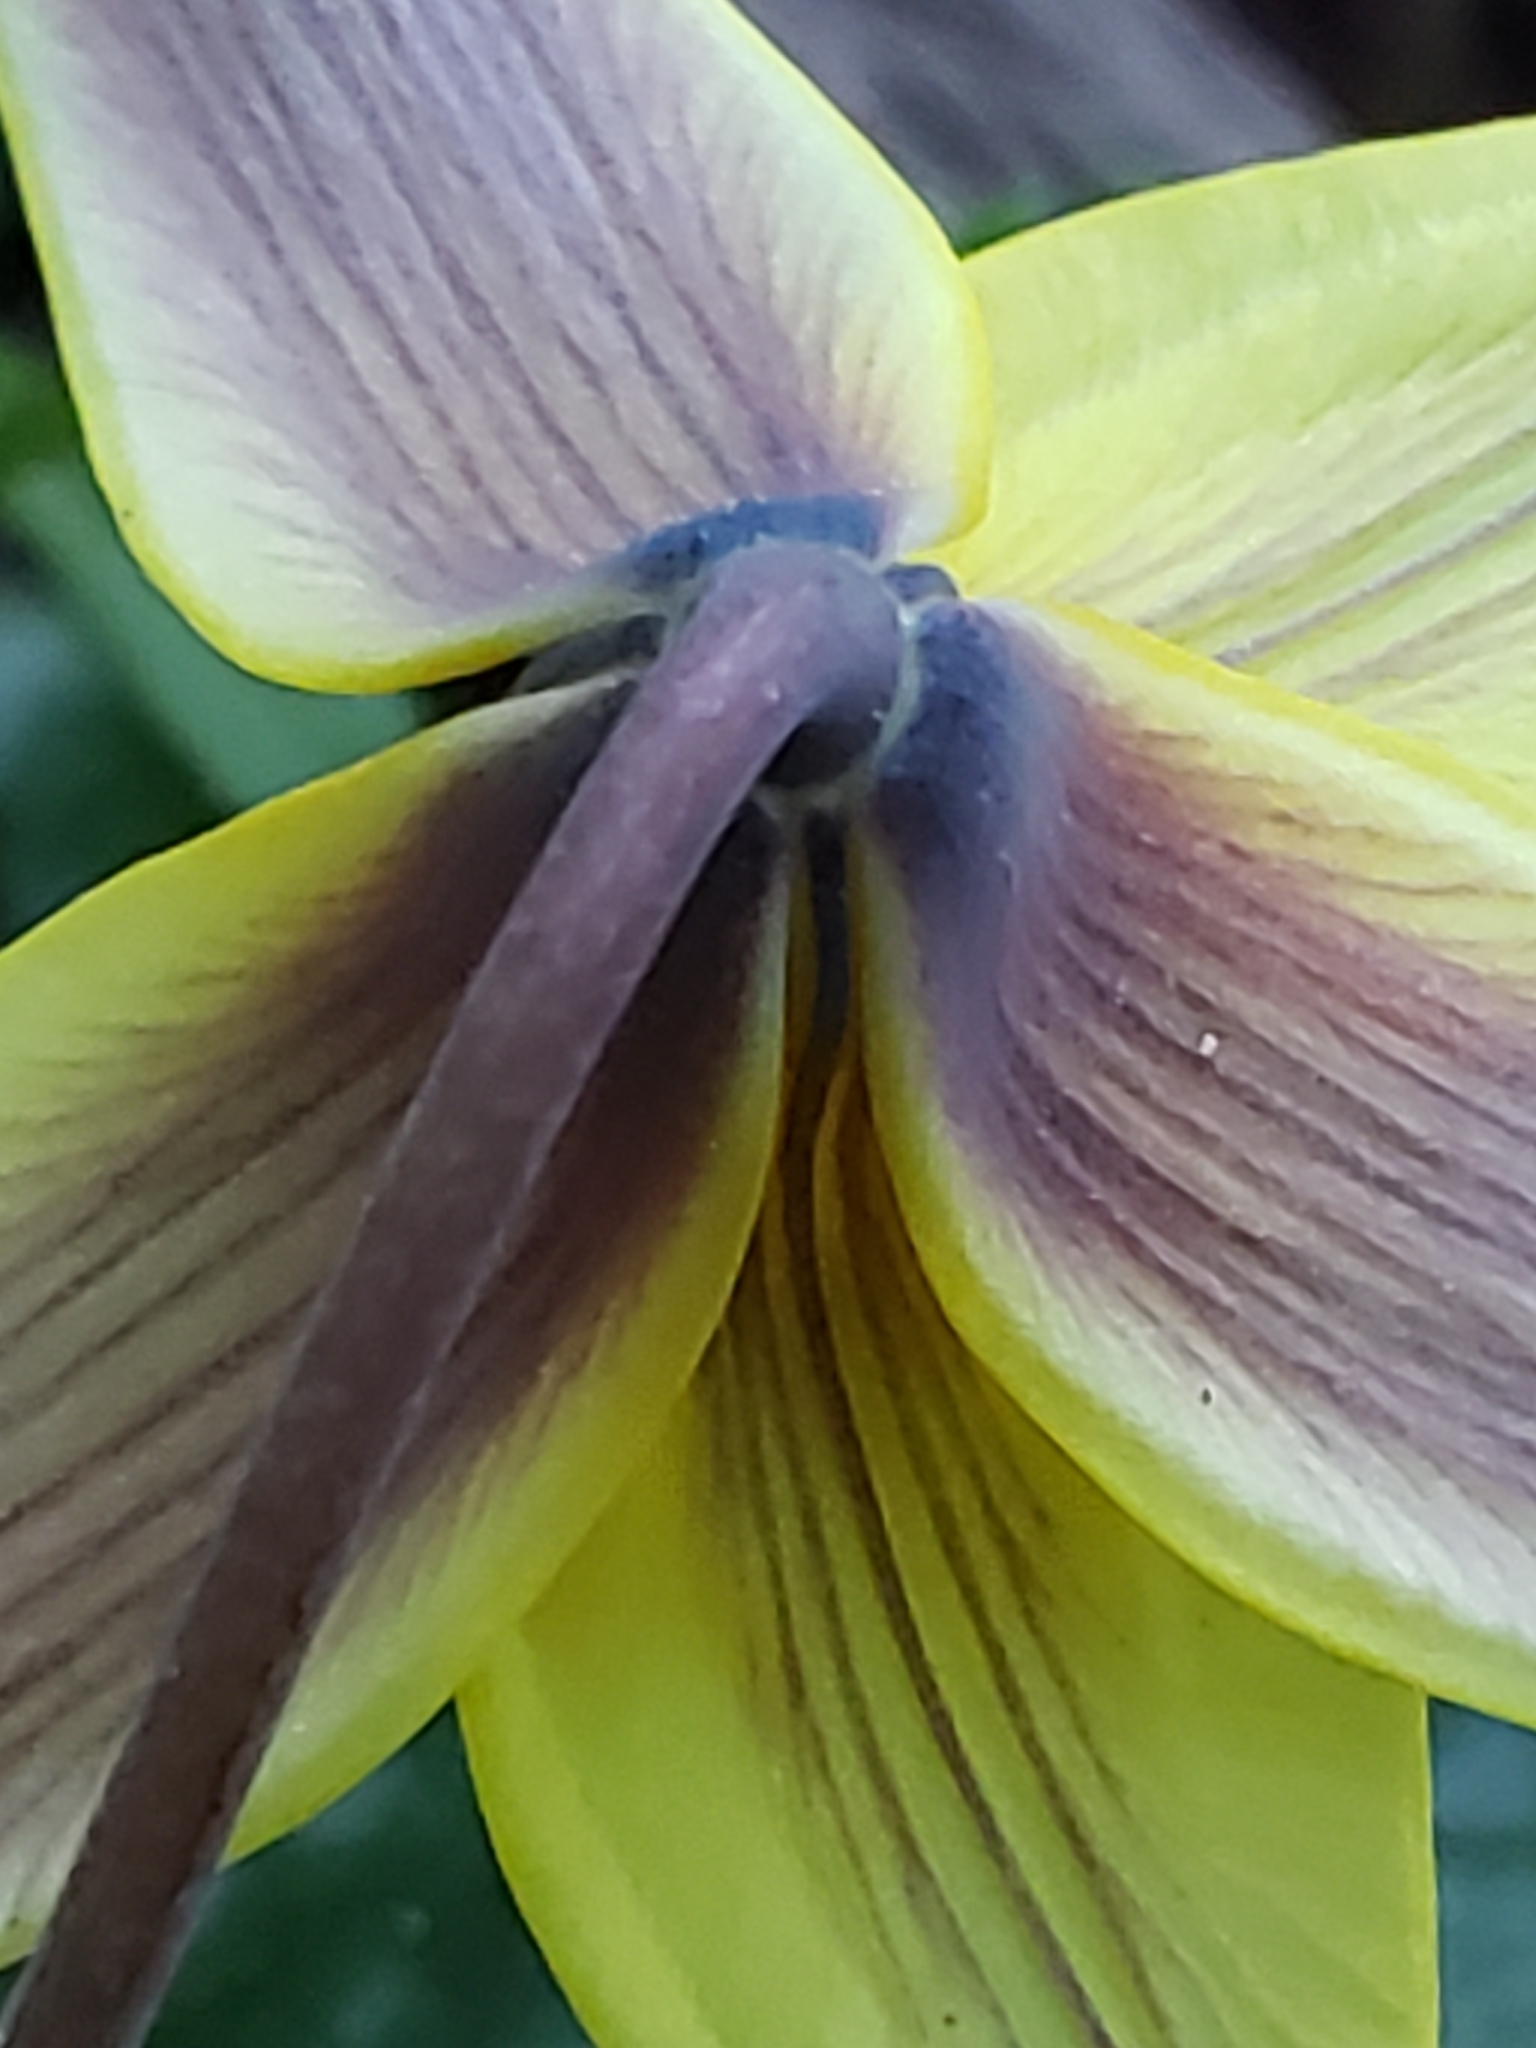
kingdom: Plantae
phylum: Tracheophyta
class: Liliopsida
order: Liliales
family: Liliaceae
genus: Erythronium
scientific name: Erythronium americanum
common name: Yellow adder's-tongue
